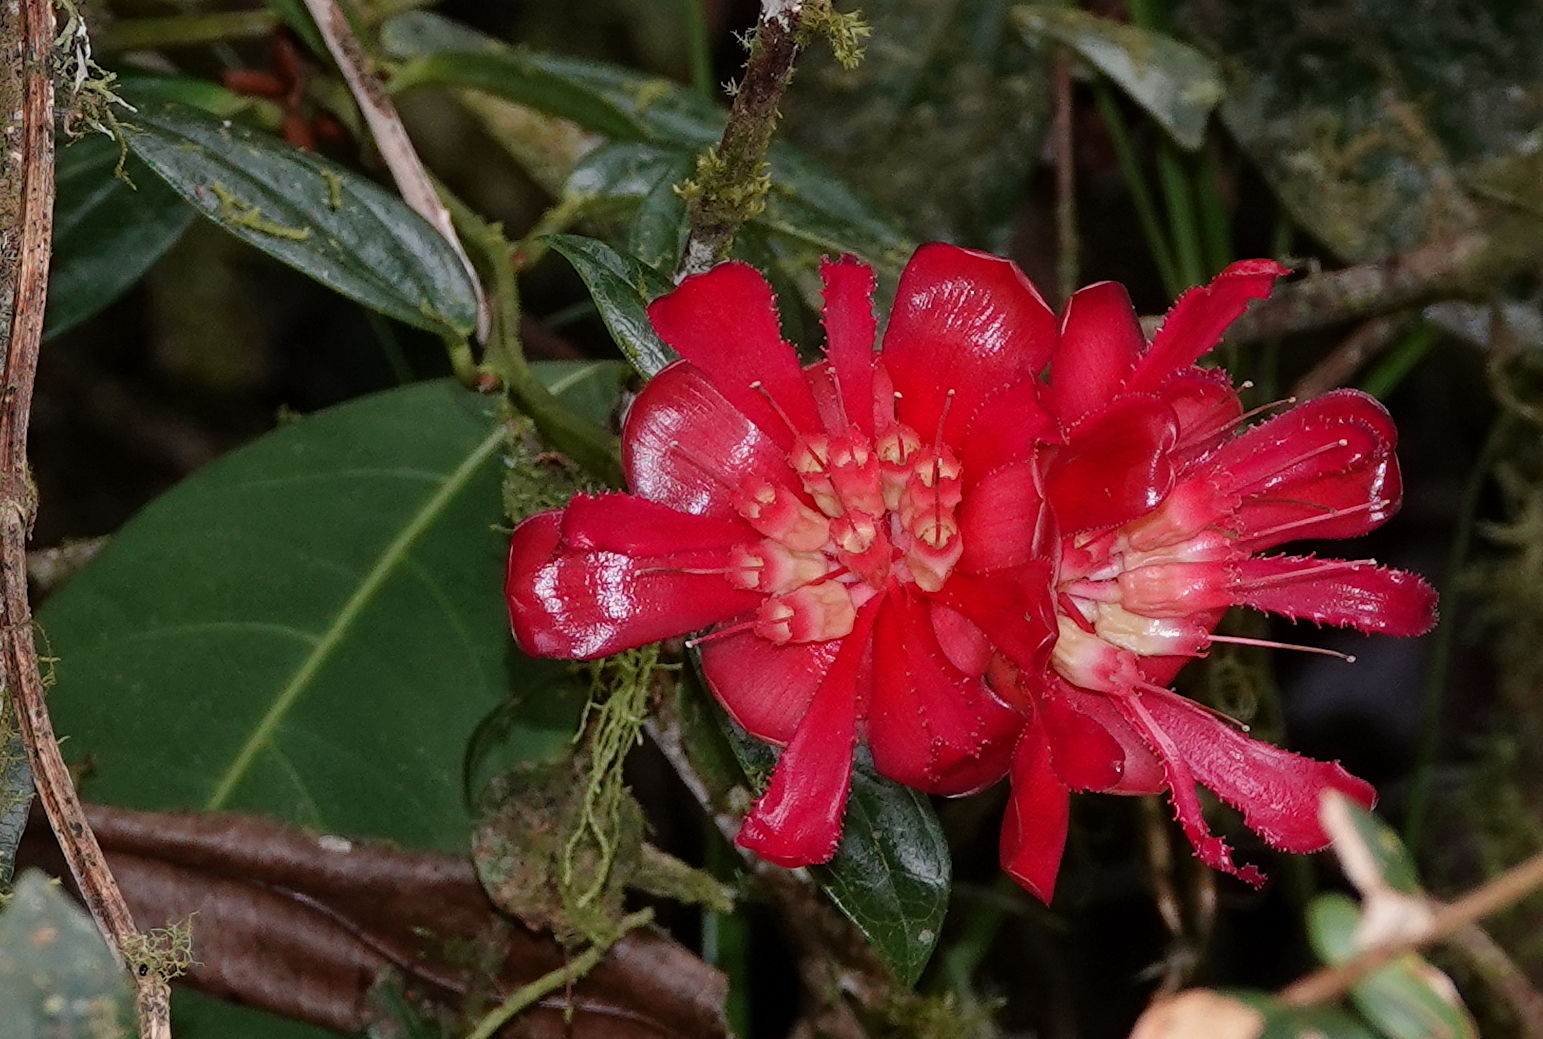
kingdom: Plantae
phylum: Tracheophyta
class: Magnoliopsida
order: Ericales
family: Ericaceae
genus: Cavendishia
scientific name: Cavendishia adenophora
